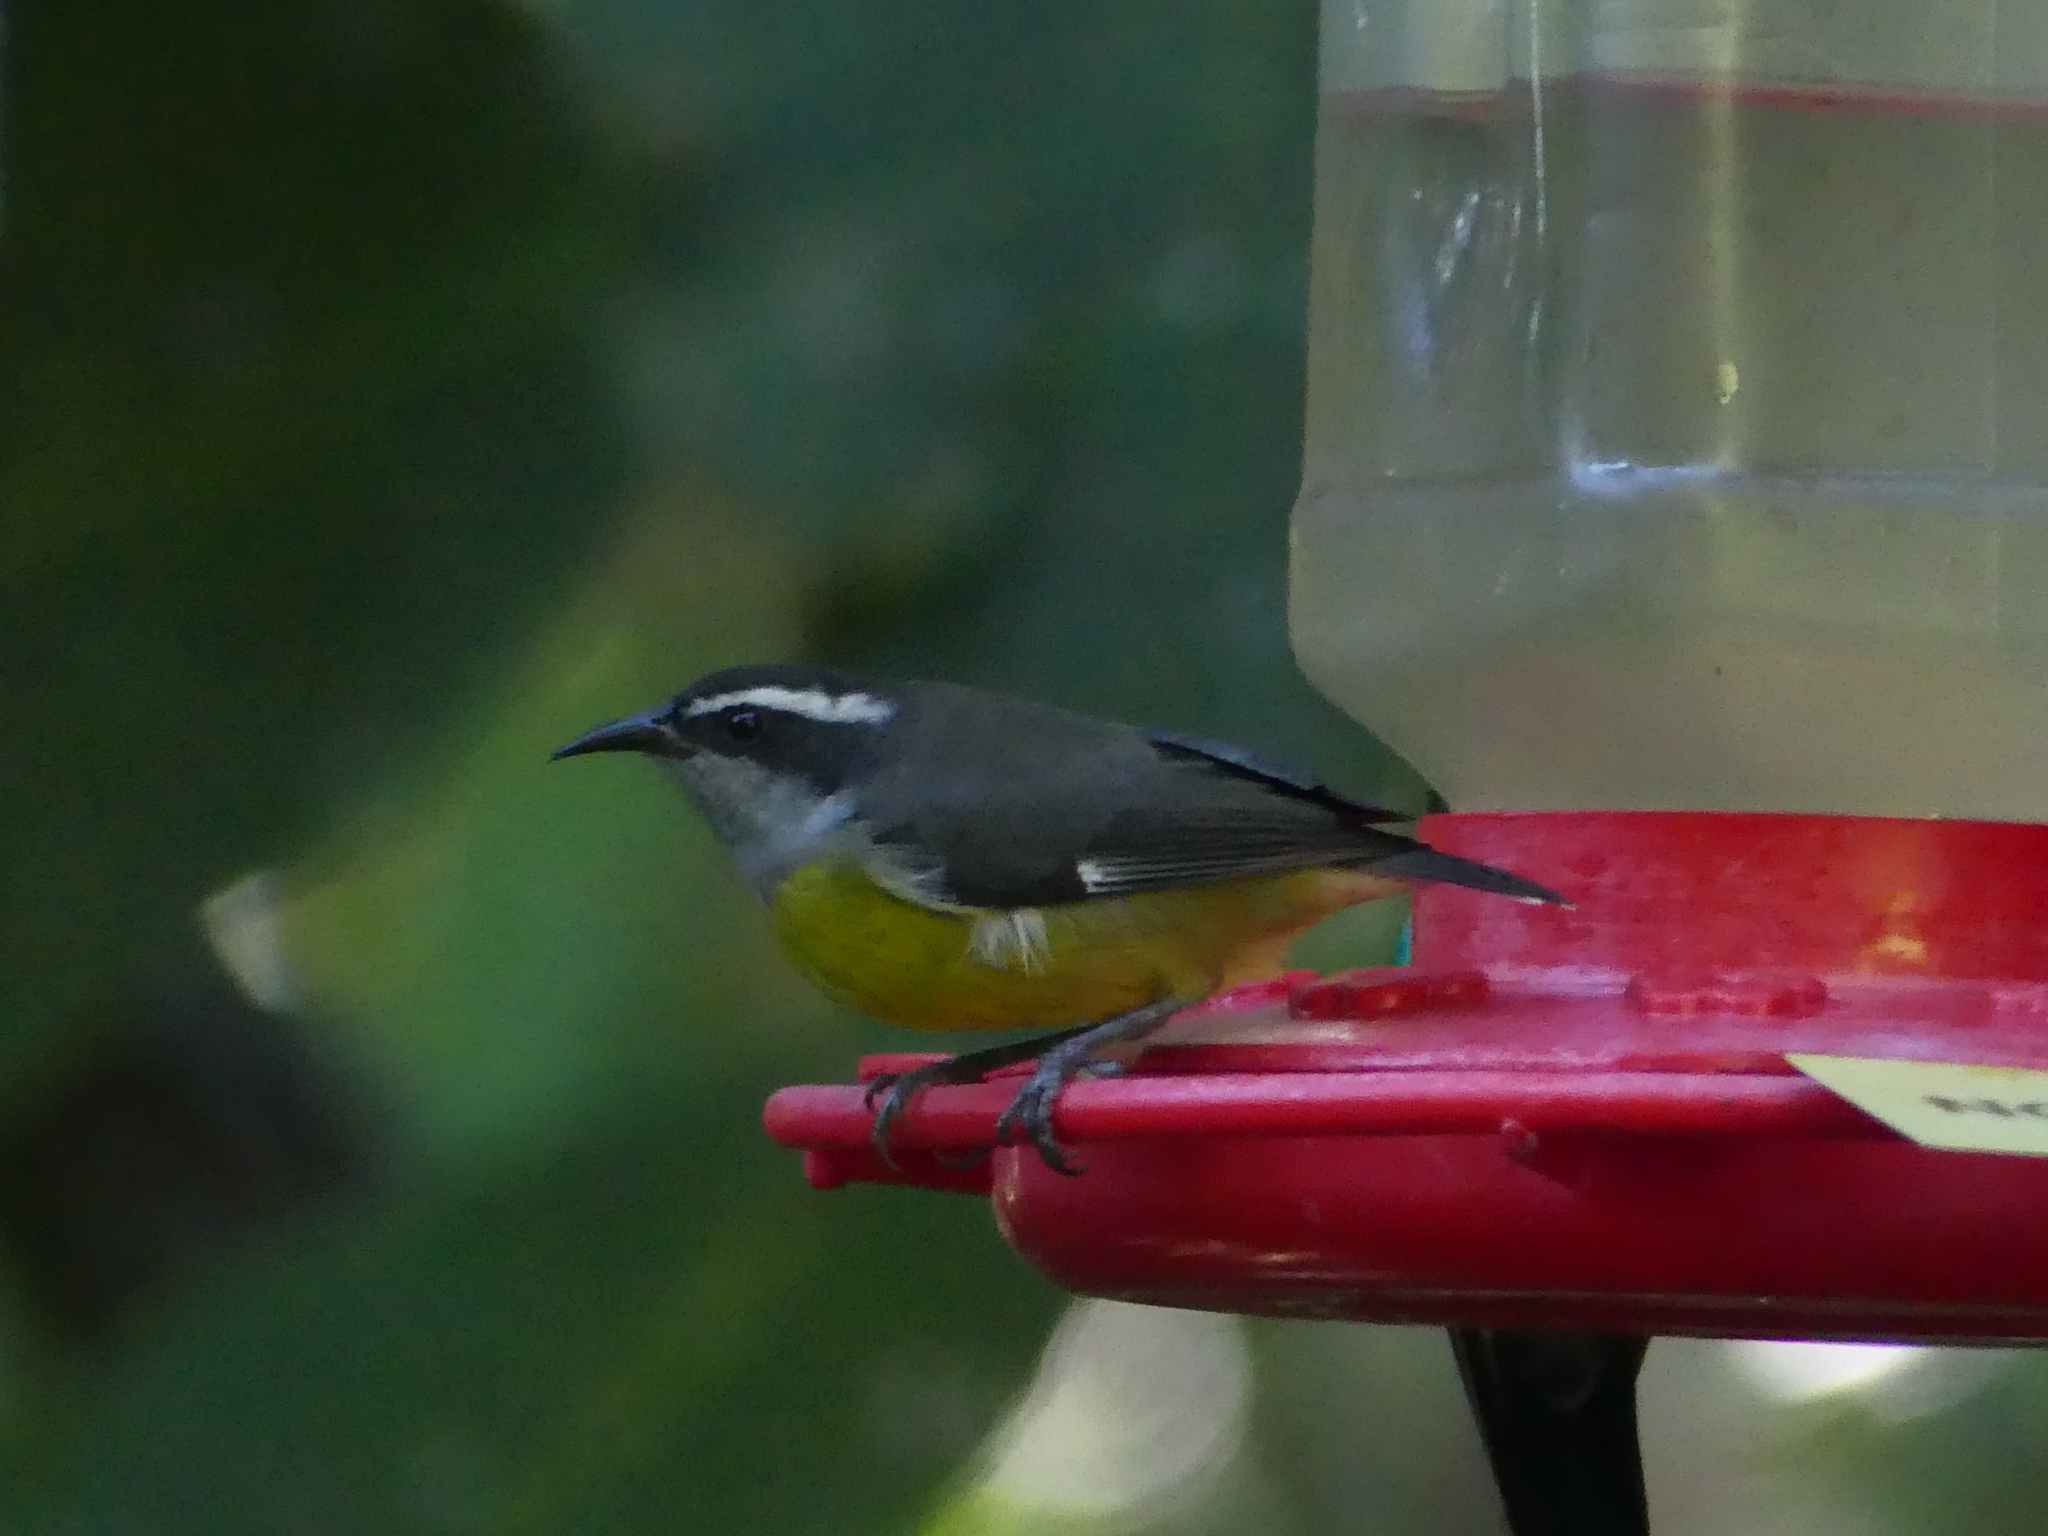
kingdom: Animalia
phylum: Chordata
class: Aves
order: Passeriformes
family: Thraupidae
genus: Coereba
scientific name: Coereba flaveola
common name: Bananaquit
